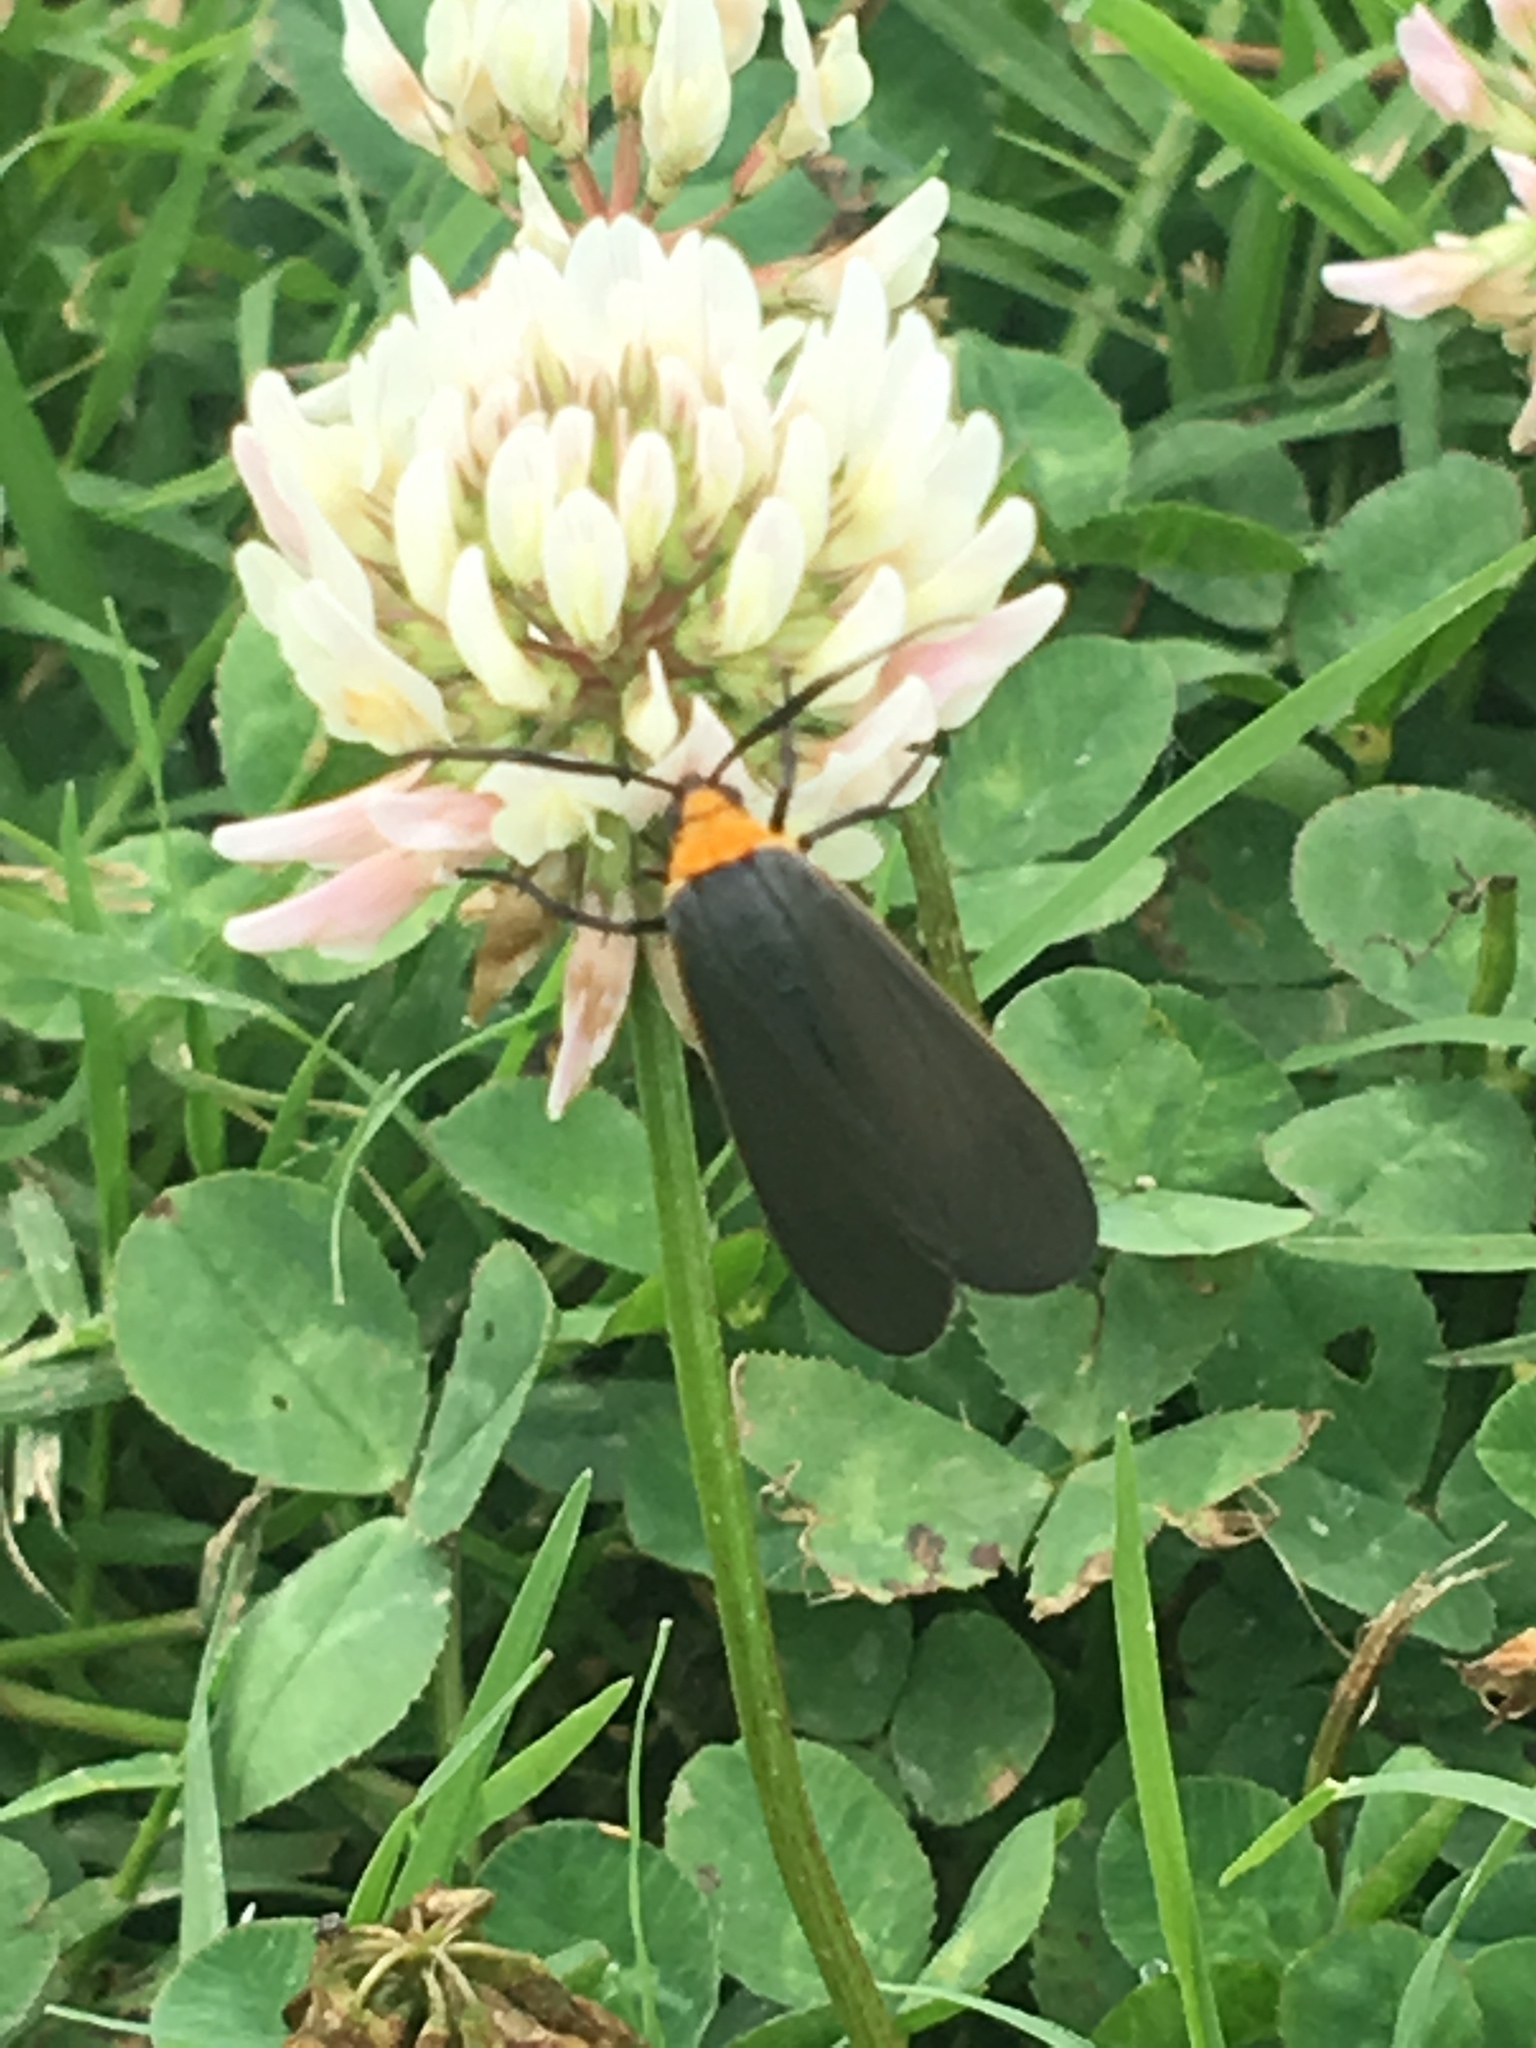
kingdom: Animalia
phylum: Arthropoda
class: Insecta
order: Lepidoptera
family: Erebidae
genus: Cisseps
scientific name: Cisseps fulvicollis
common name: Yellow-collared scape moth
